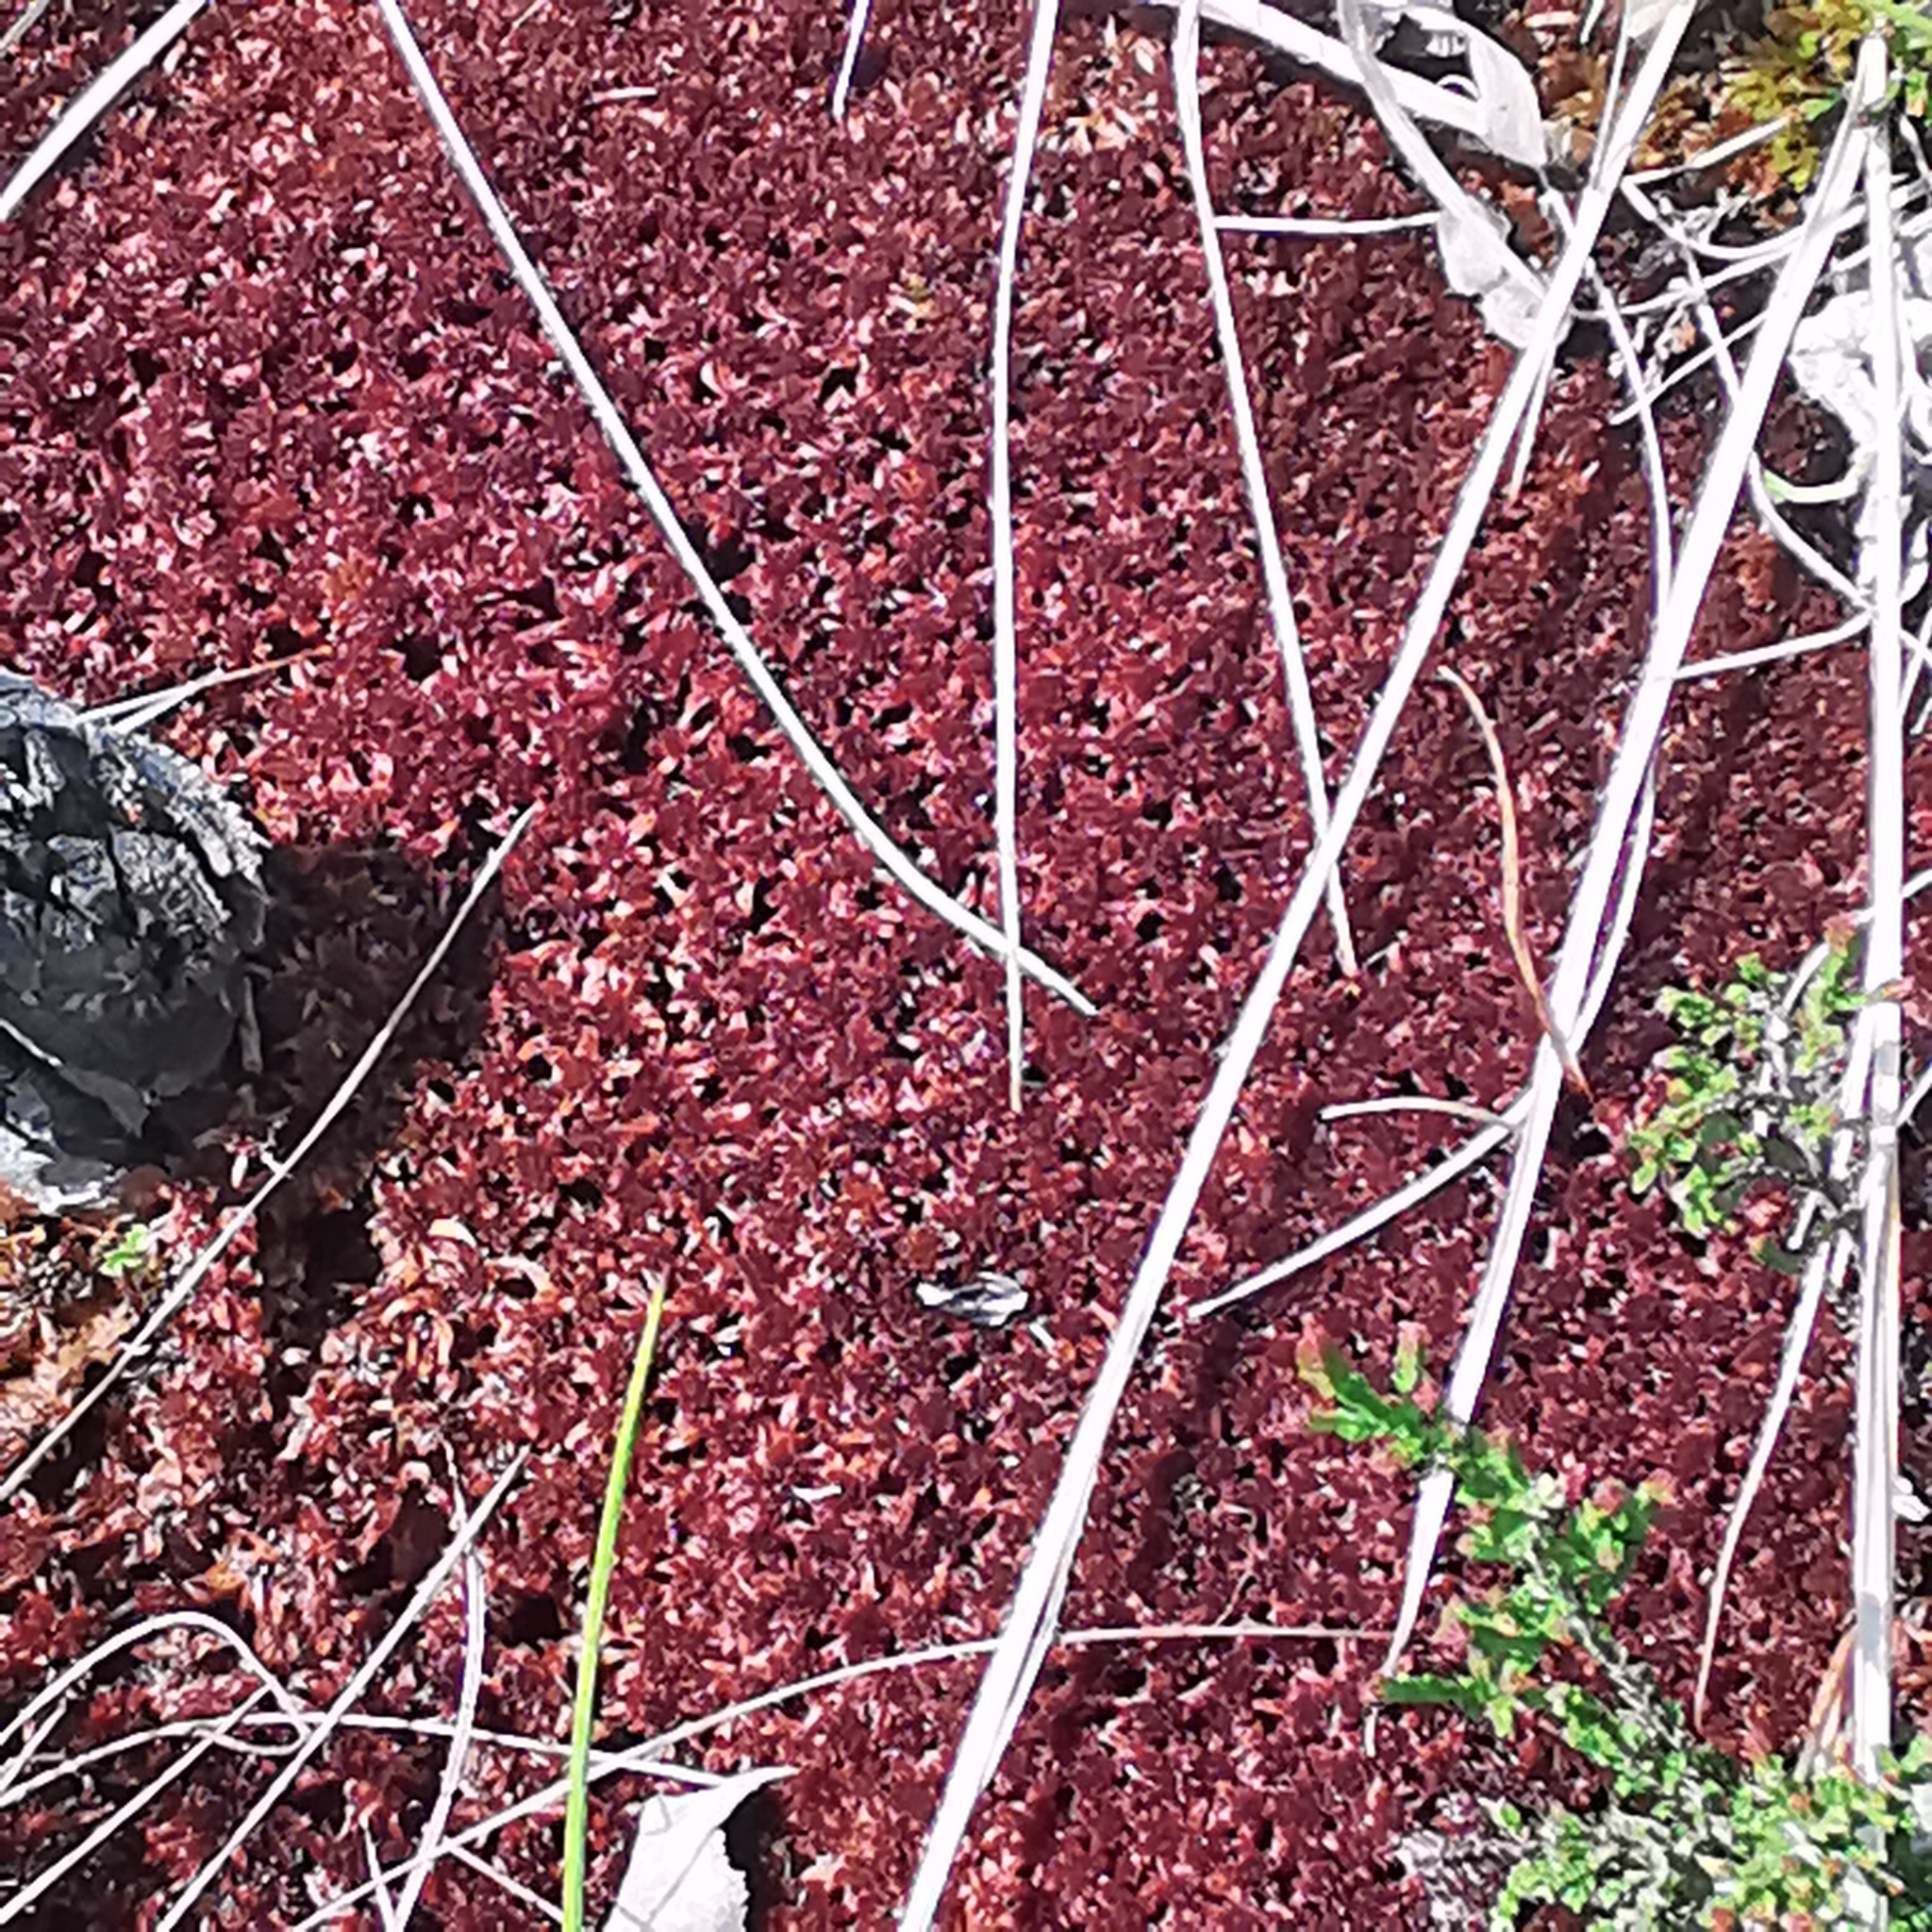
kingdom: Plantae
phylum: Bryophyta
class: Sphagnopsida
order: Sphagnales
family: Sphagnaceae
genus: Sphagnum
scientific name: Sphagnum rubellum
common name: Red peat moss
